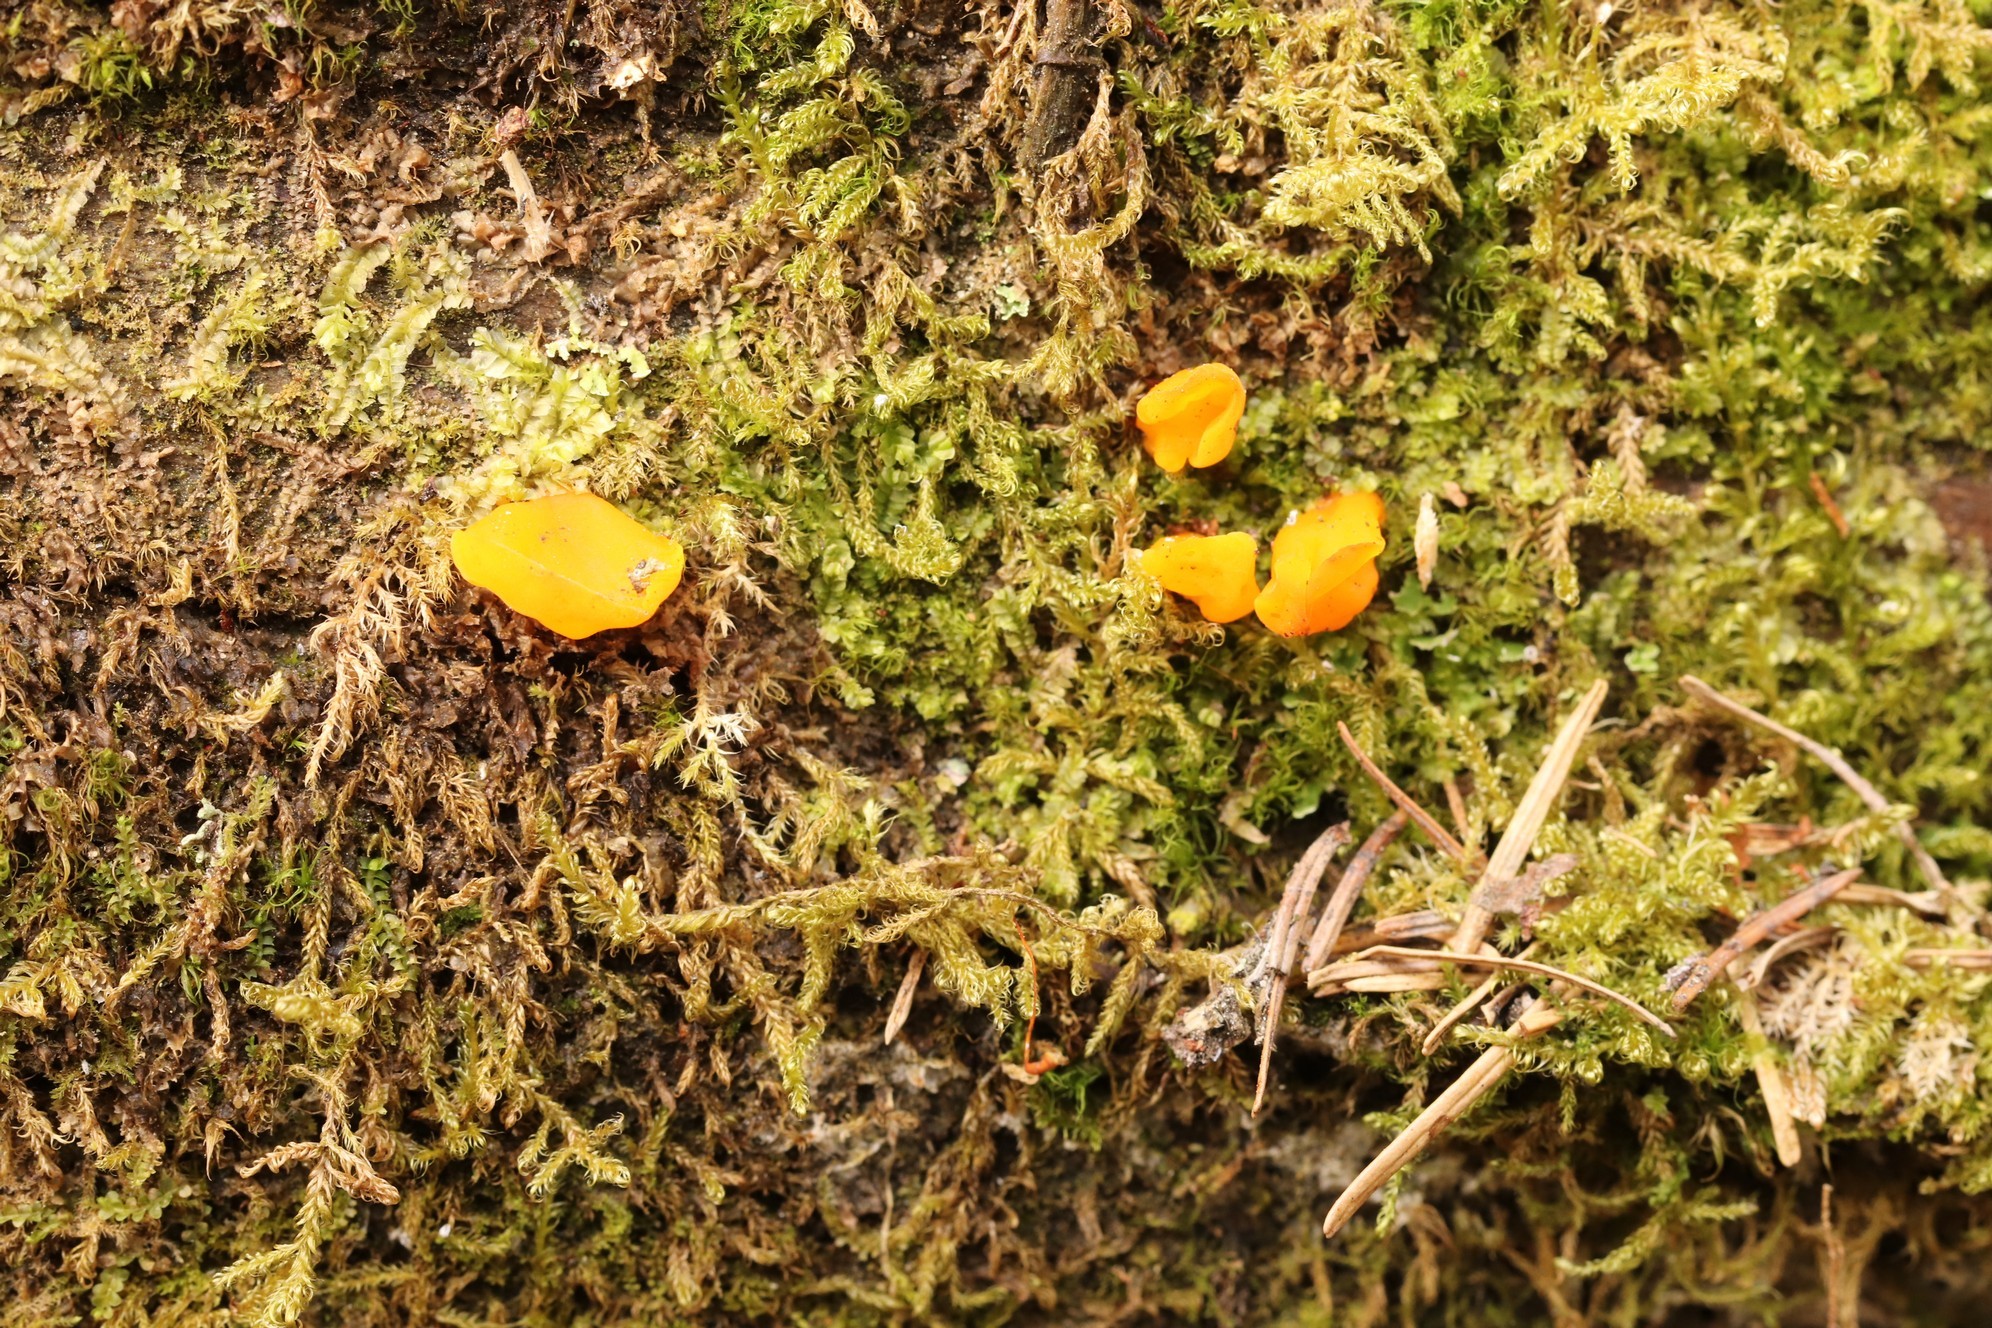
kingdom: Fungi
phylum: Basidiomycota
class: Dacrymycetes
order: Dacrymycetales
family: Dacrymycetaceae
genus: Dacrymyces
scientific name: Dacrymyces chrysospermus
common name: Orange jelly spot
